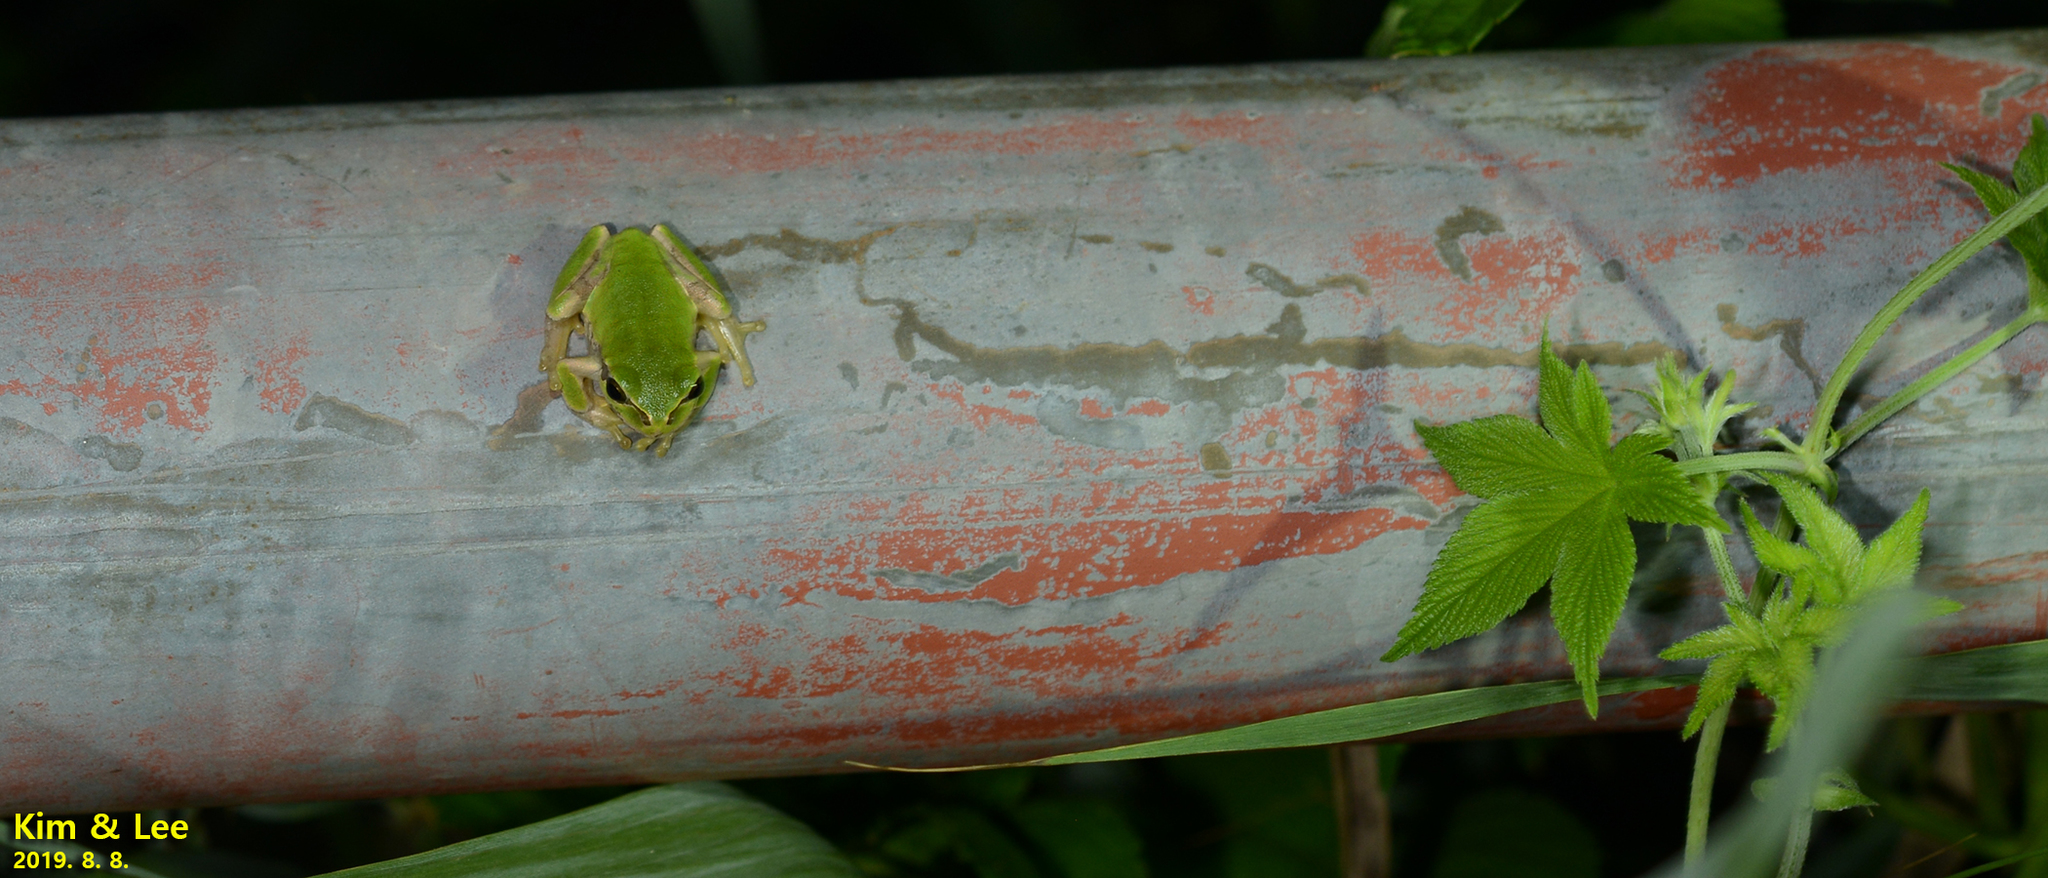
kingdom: Animalia
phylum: Chordata
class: Amphibia
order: Anura
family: Hylidae
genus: Dryophytes
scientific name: Dryophytes japonicus
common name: Japanese treefrog
